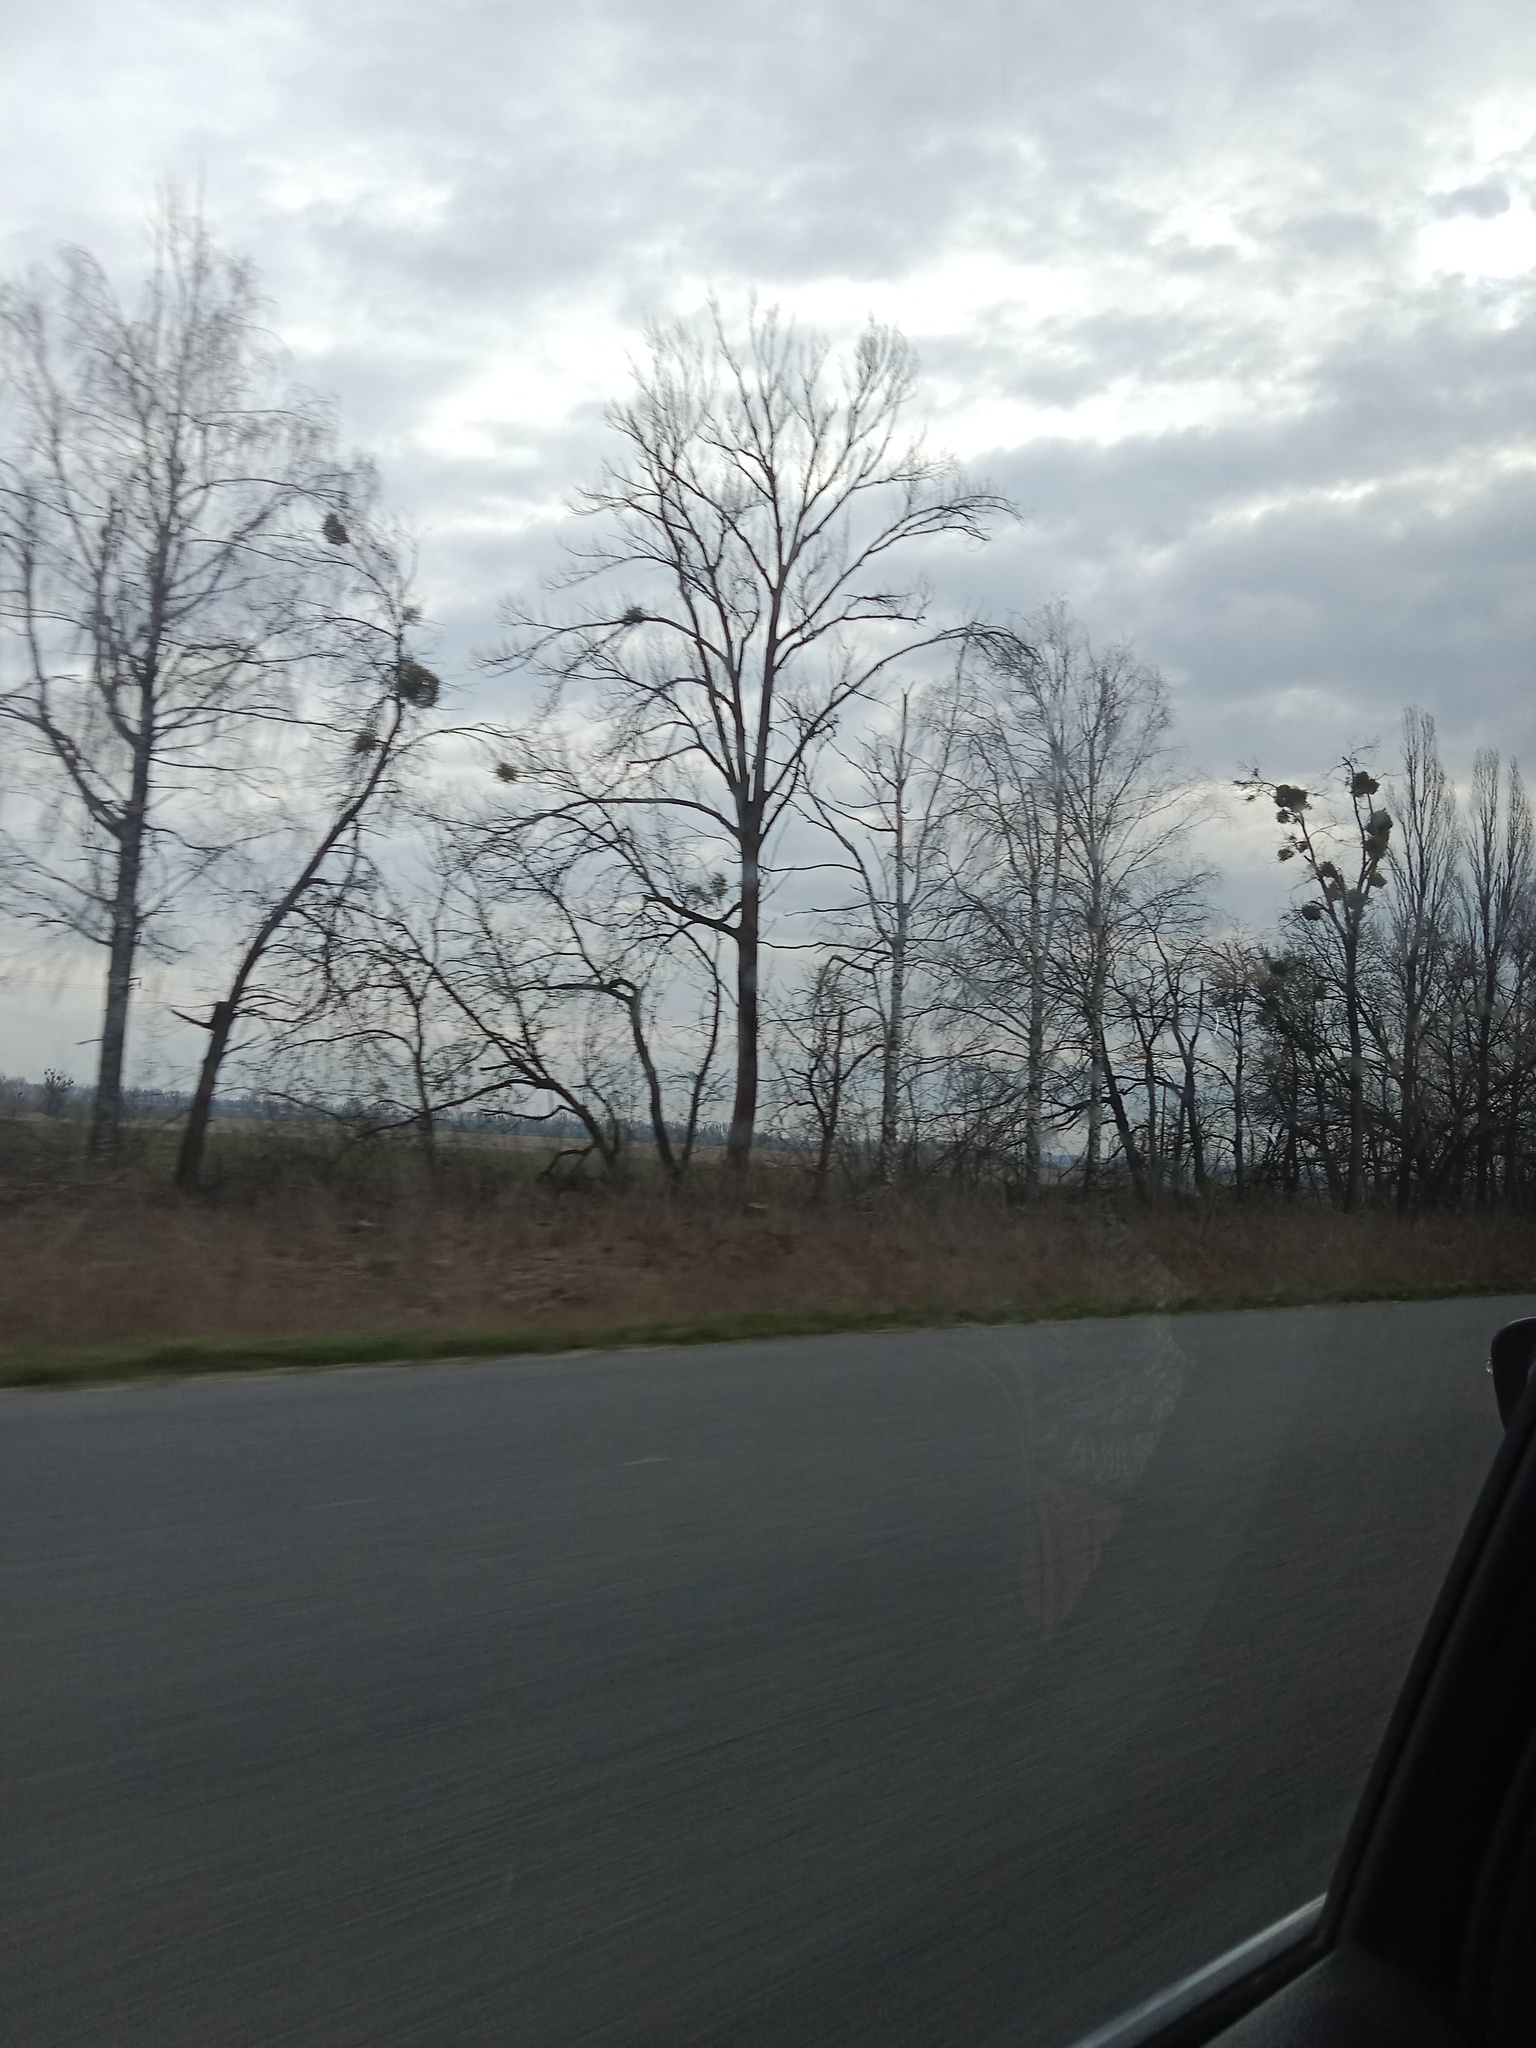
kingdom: Plantae
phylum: Tracheophyta
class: Magnoliopsida
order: Santalales
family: Viscaceae
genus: Viscum
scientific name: Viscum album
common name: Mistletoe
